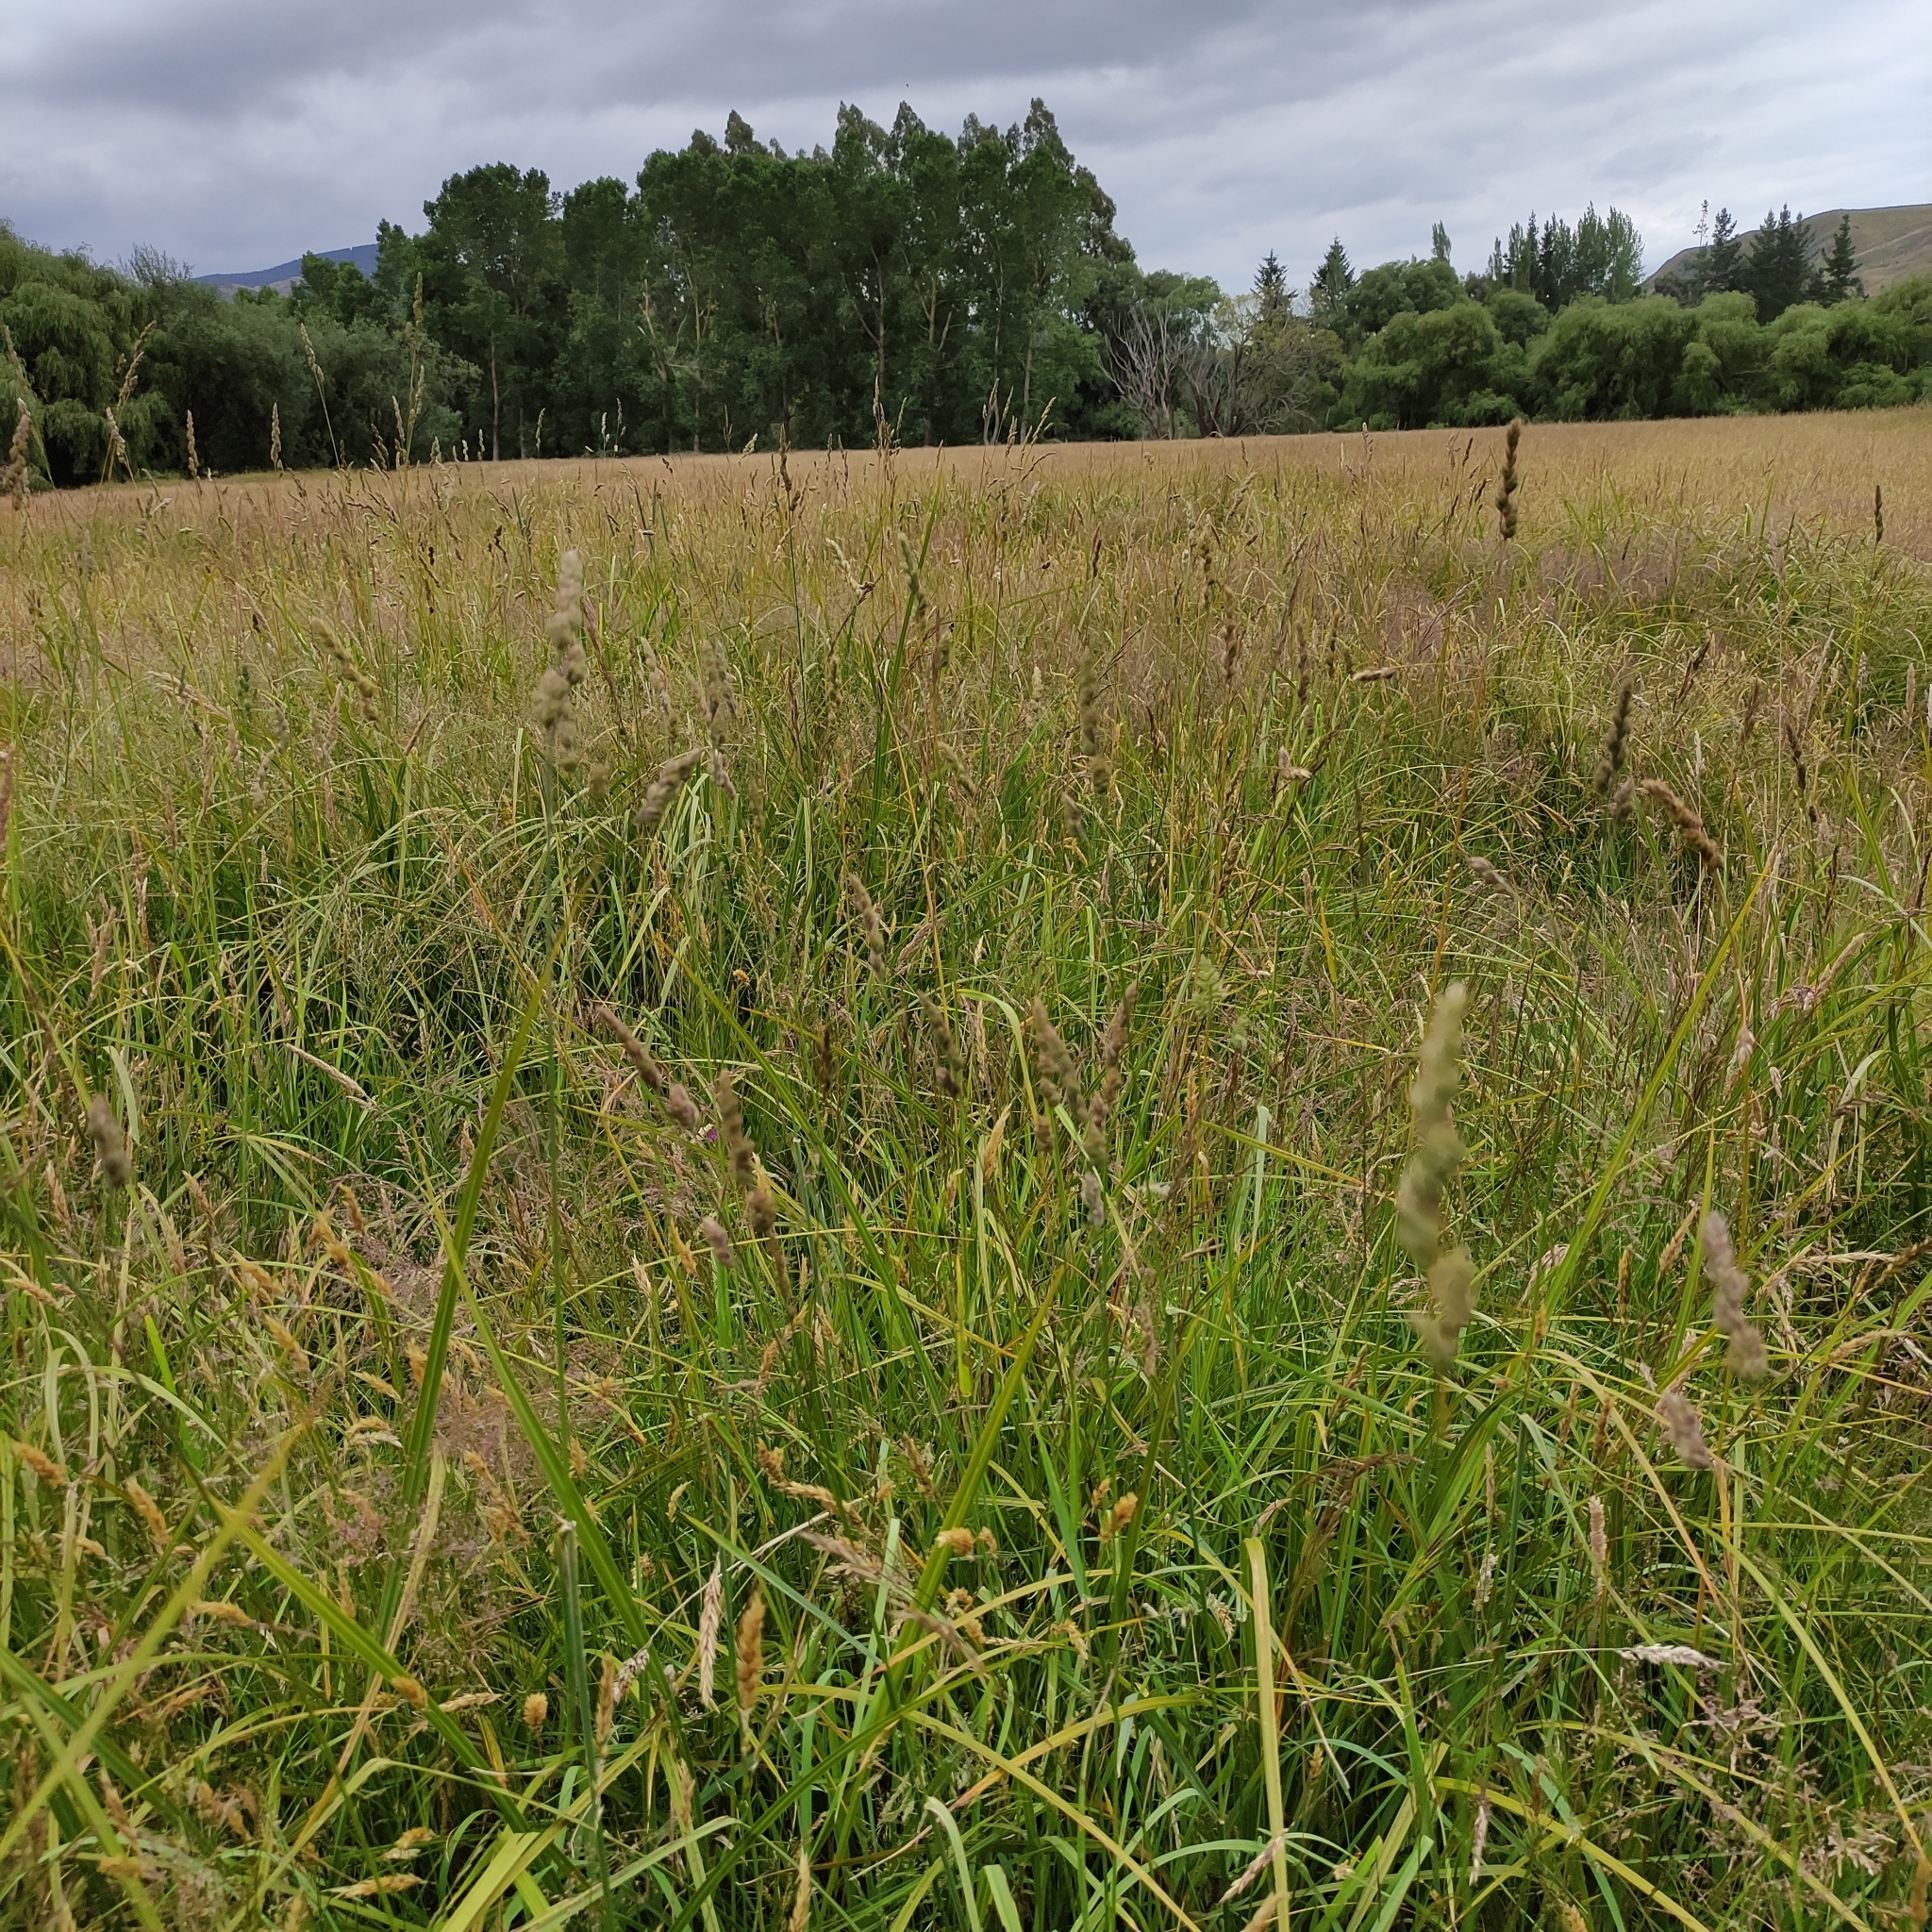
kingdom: Plantae
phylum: Tracheophyta
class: Liliopsida
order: Poales
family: Poaceae
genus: Dactylis
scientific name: Dactylis glomerata
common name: Orchardgrass
